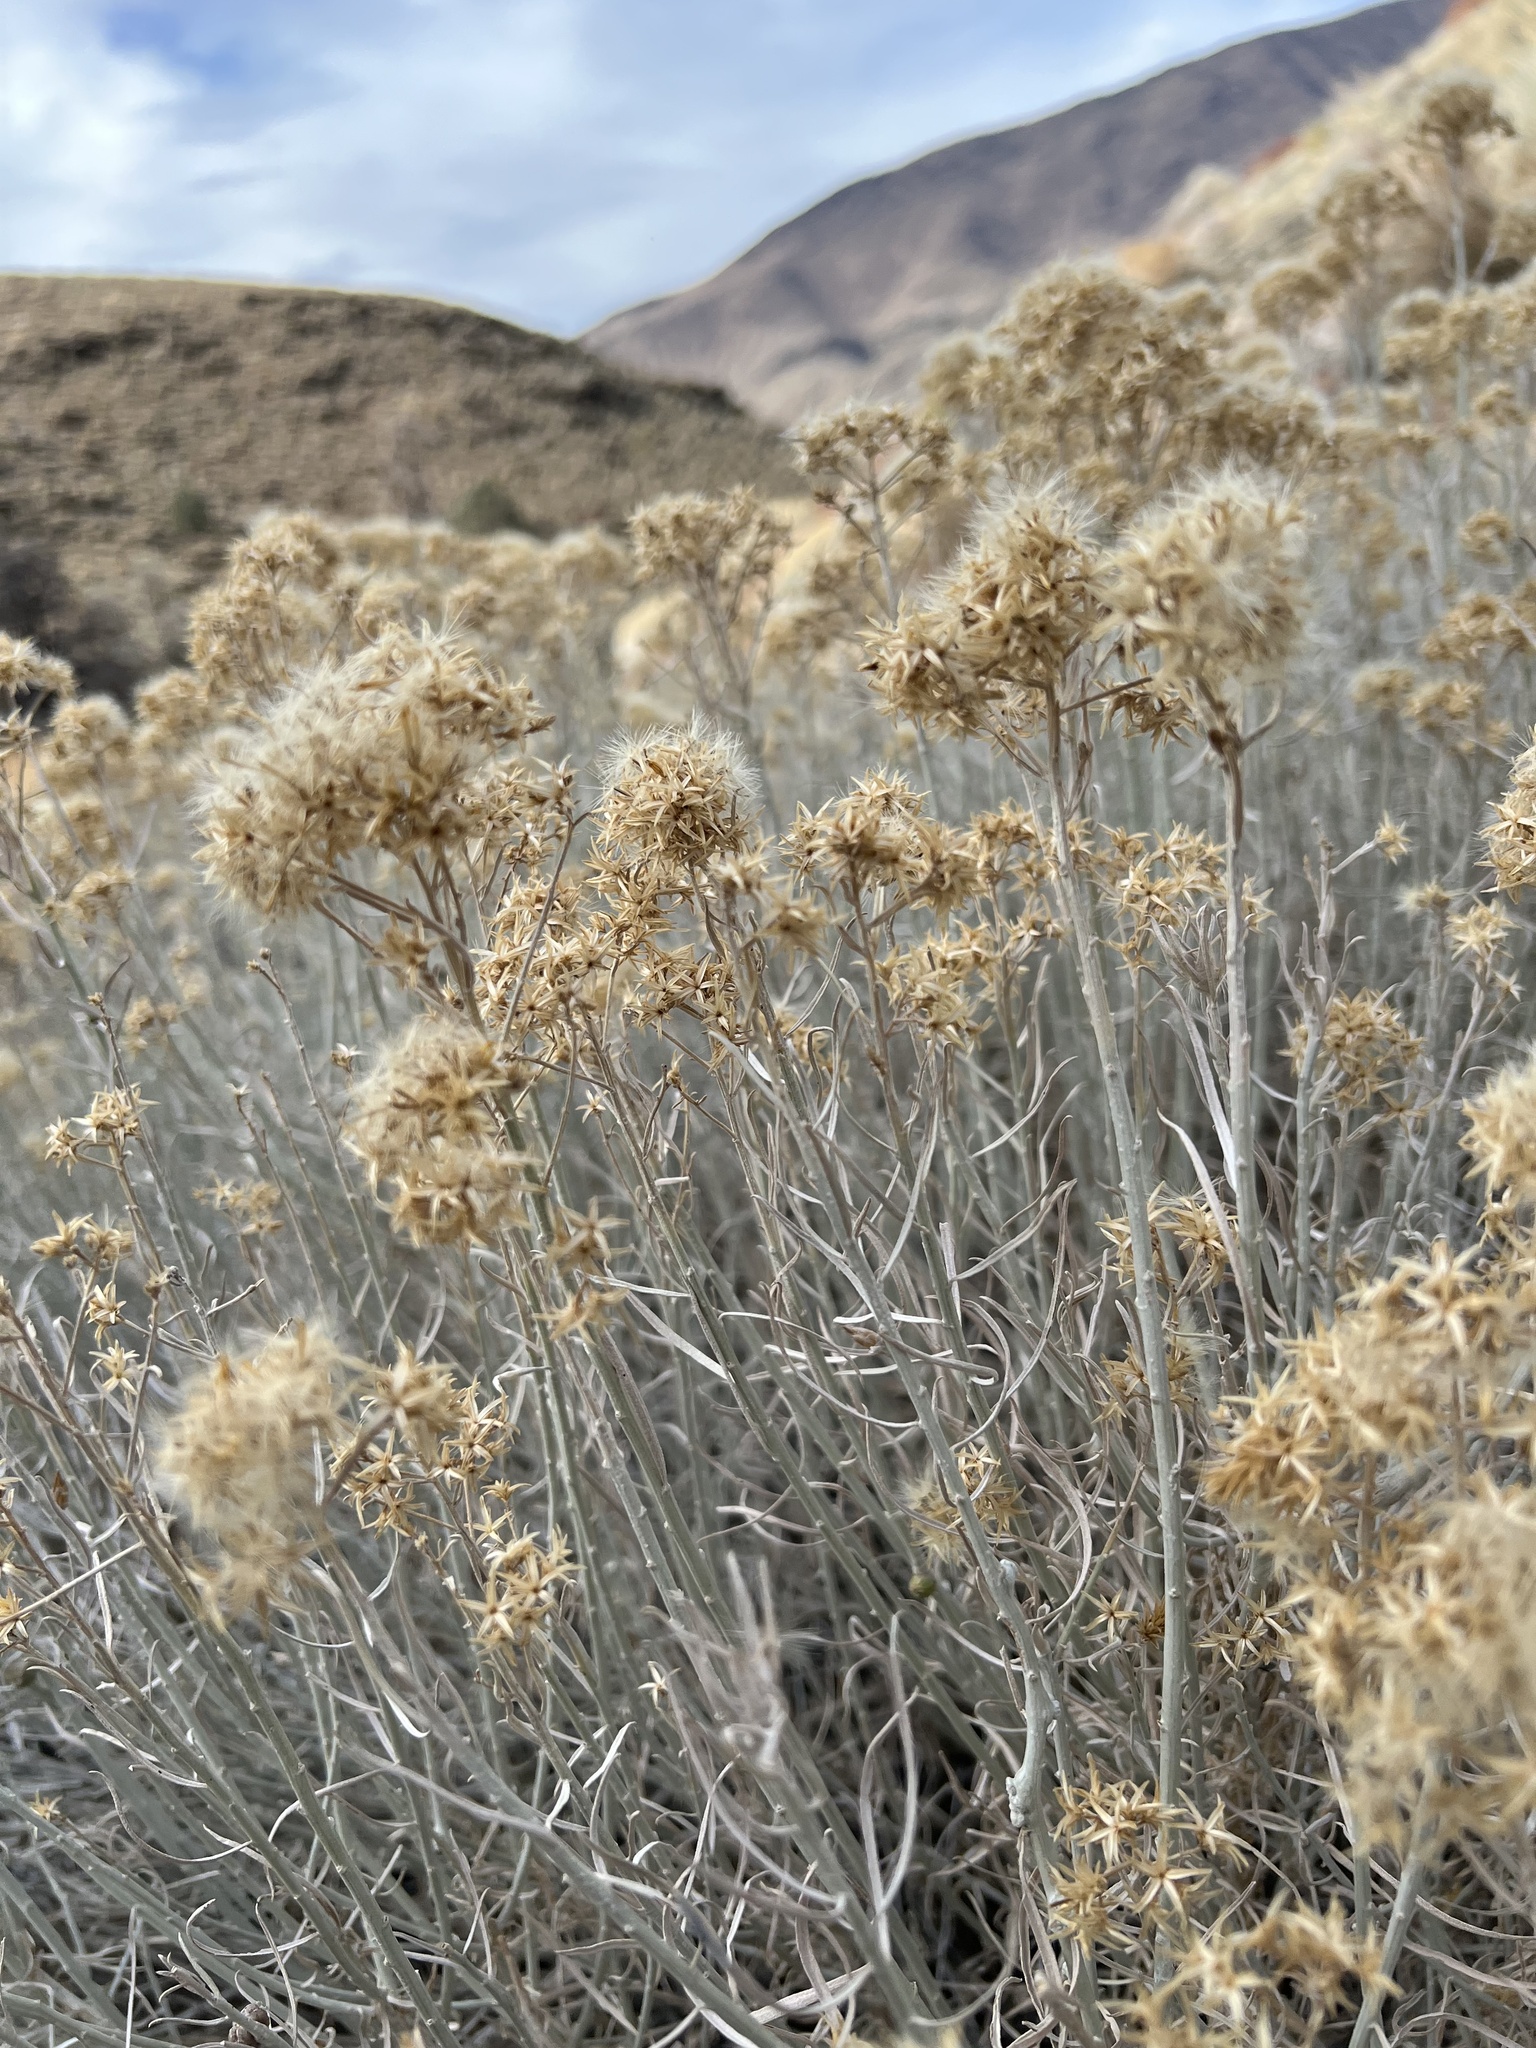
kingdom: Plantae
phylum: Tracheophyta
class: Magnoliopsida
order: Asterales
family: Asteraceae
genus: Ericameria
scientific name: Ericameria nauseosa
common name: Rubber rabbitbrush
